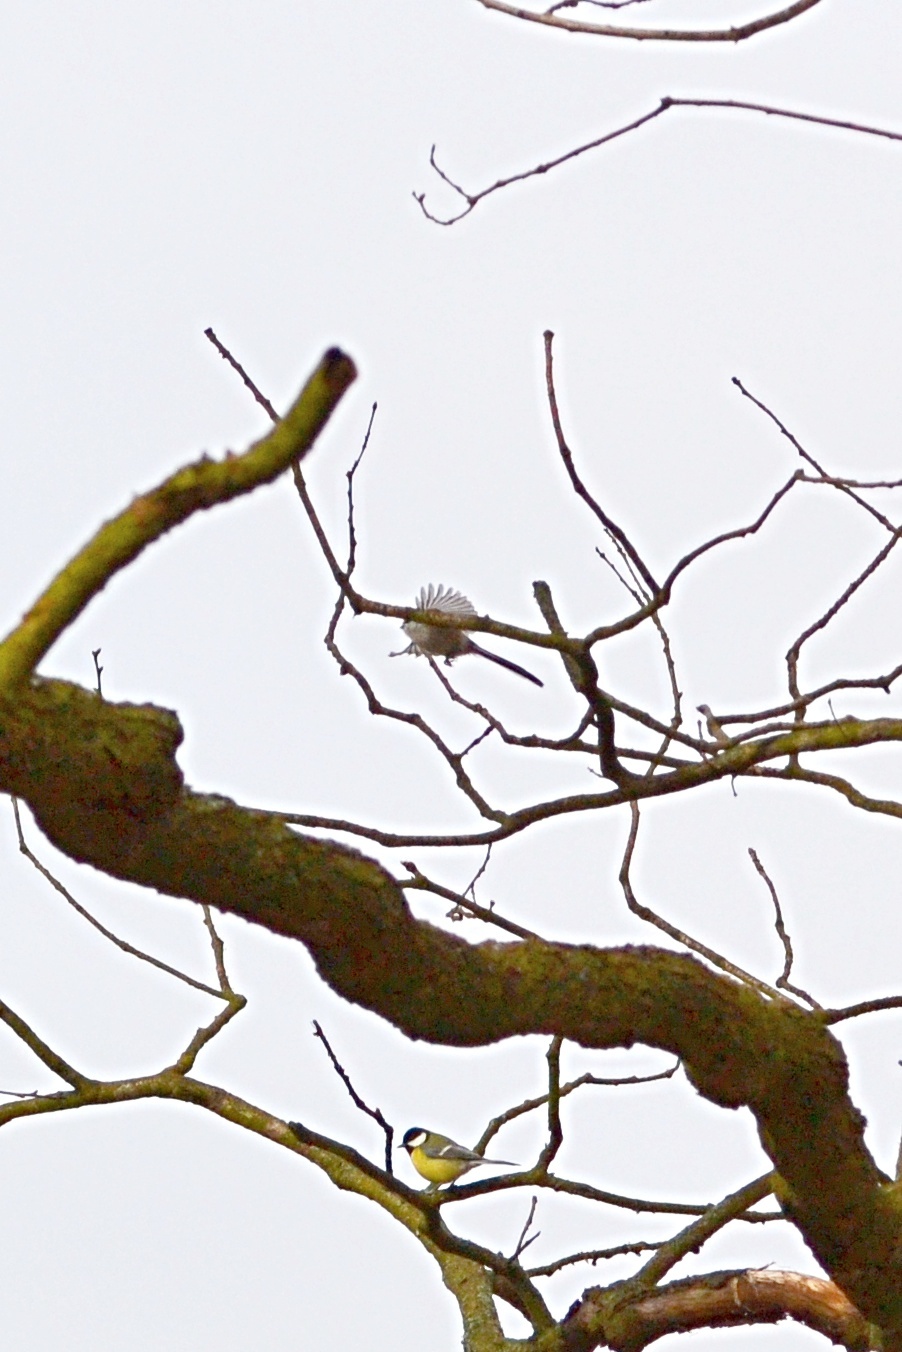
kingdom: Animalia
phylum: Chordata
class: Aves
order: Passeriformes
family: Aegithalidae
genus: Aegithalos
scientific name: Aegithalos caudatus
